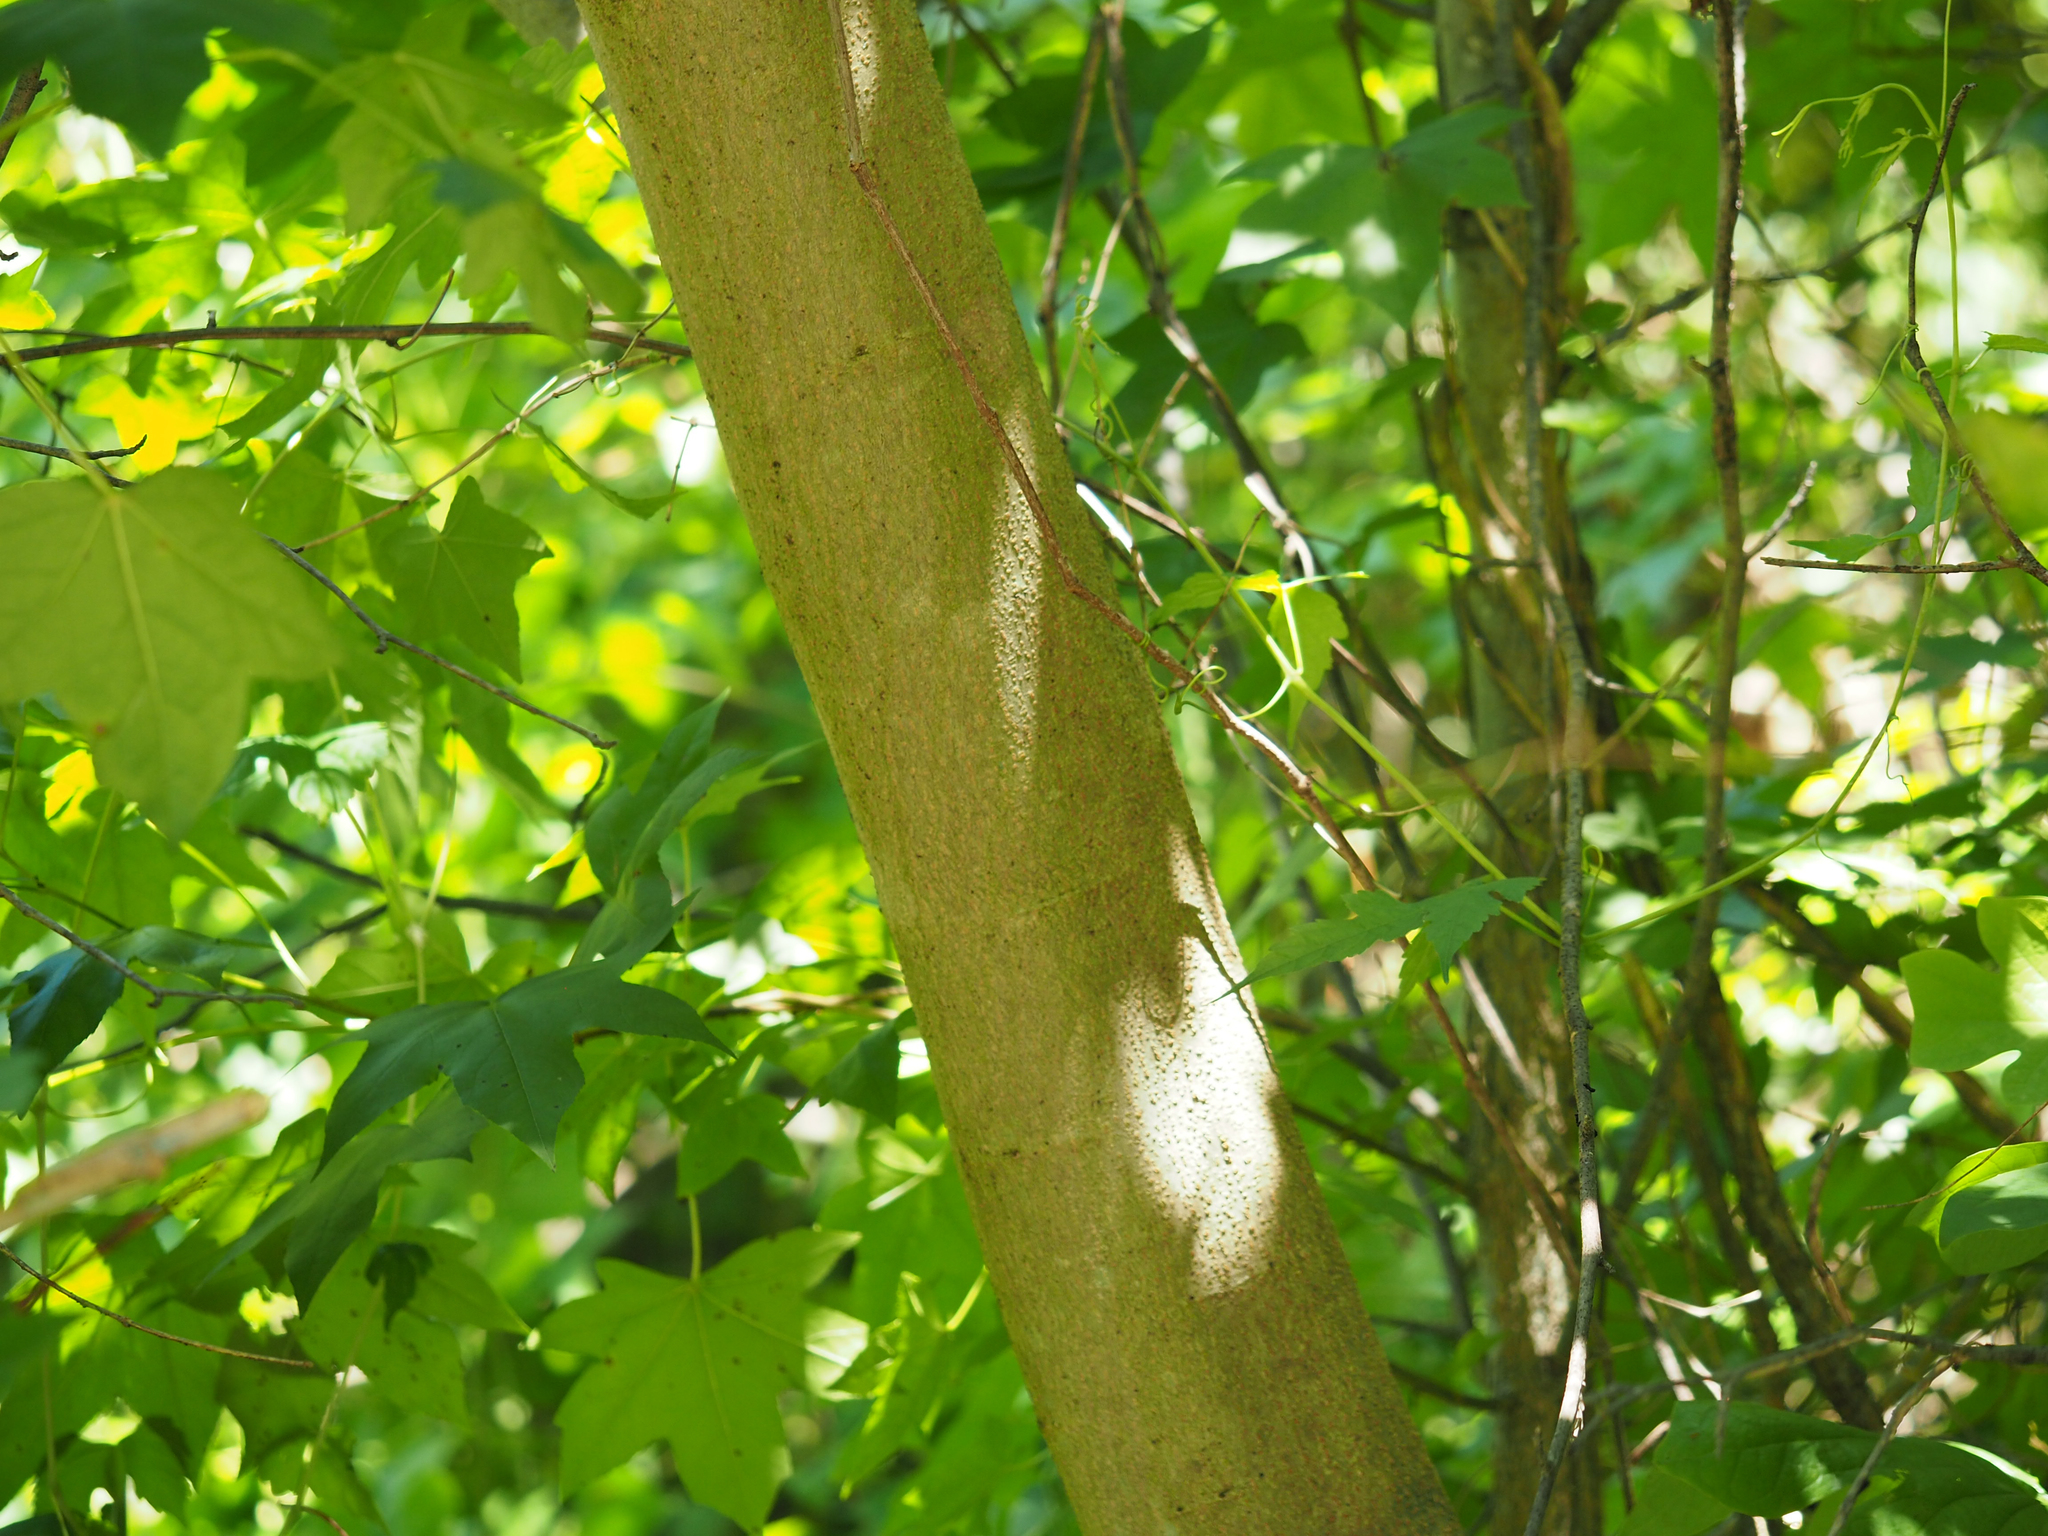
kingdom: Plantae
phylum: Tracheophyta
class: Magnoliopsida
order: Fabales
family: Fabaceae
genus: Albizia
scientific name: Albizia julibrissin
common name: Silktree
